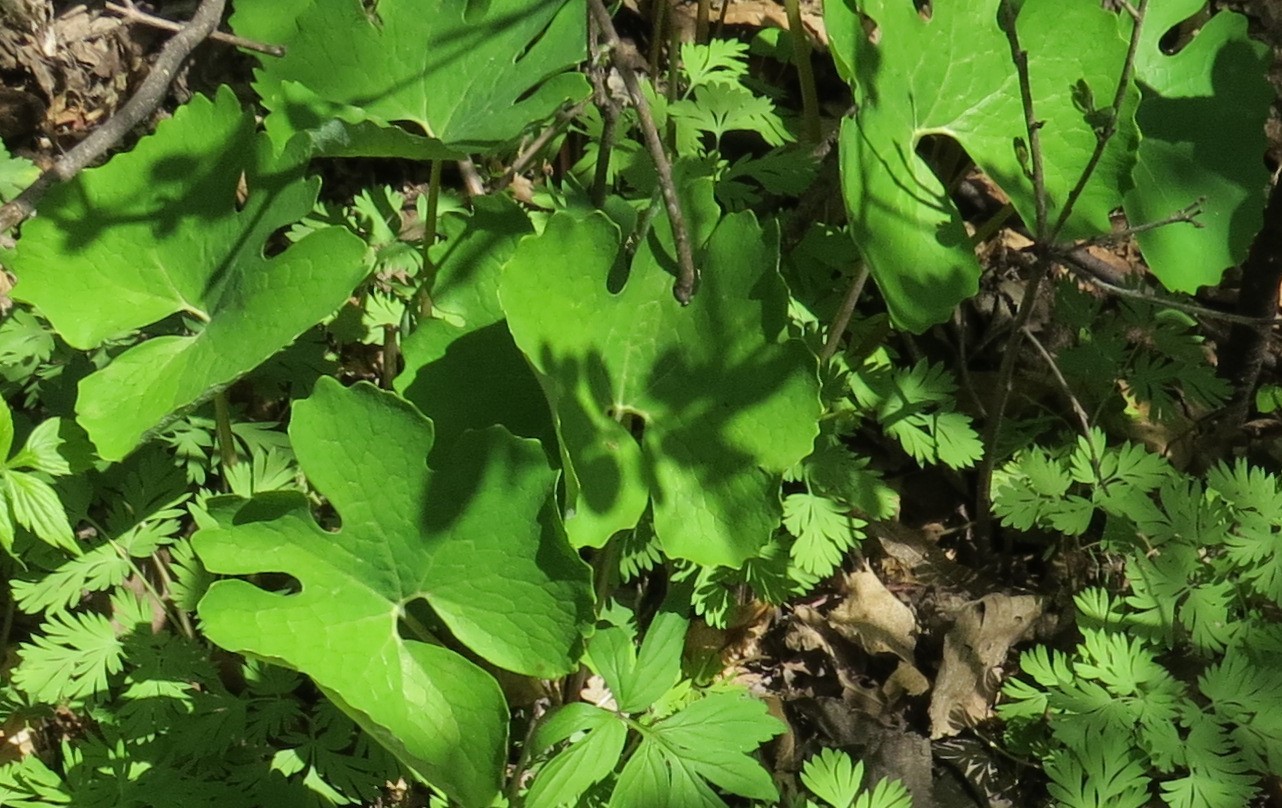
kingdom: Plantae
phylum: Tracheophyta
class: Magnoliopsida
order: Ranunculales
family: Papaveraceae
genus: Sanguinaria
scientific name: Sanguinaria canadensis
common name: Bloodroot
